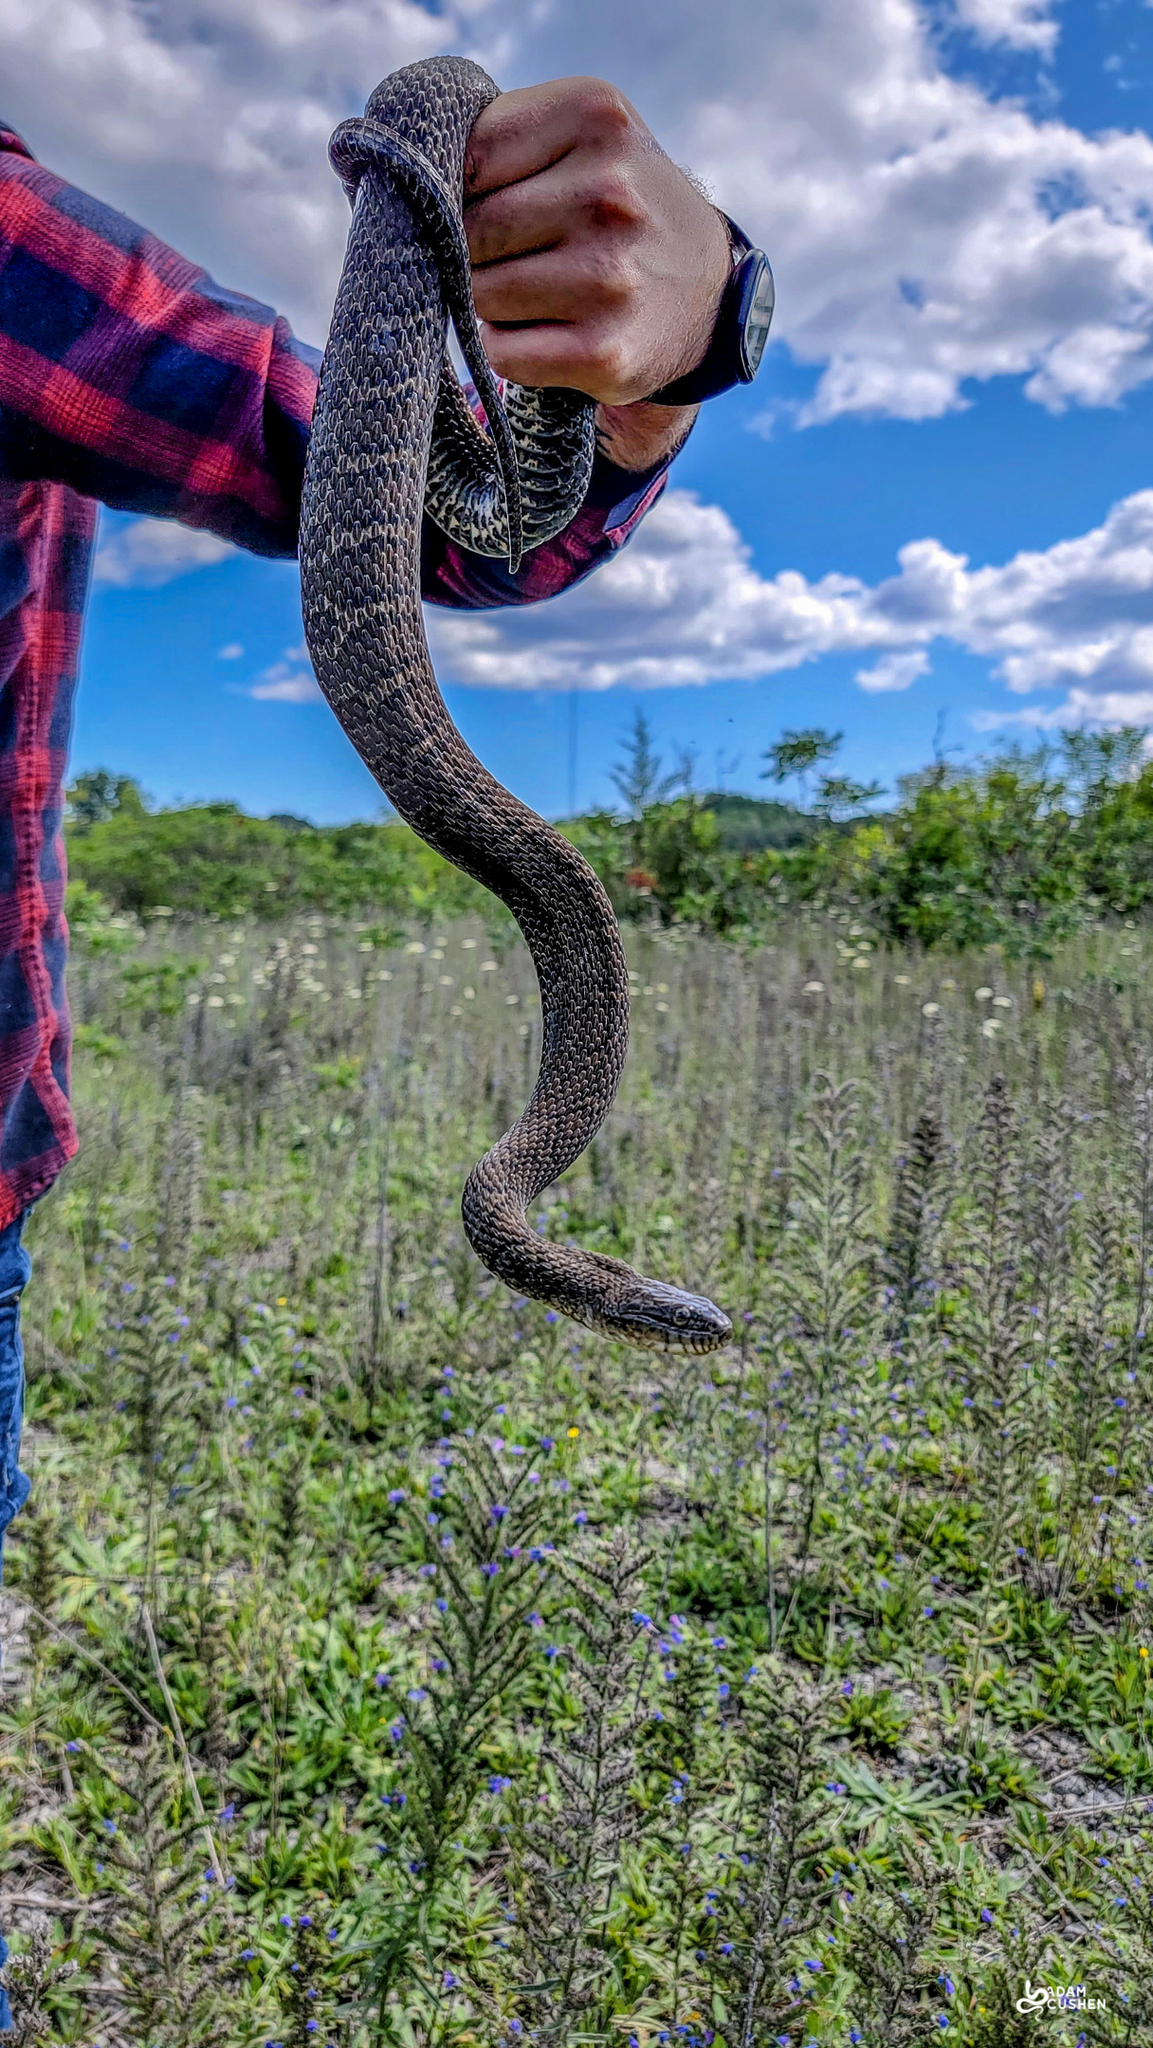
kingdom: Animalia
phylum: Chordata
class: Squamata
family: Colubridae
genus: Nerodia
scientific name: Nerodia sipedon
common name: Northern water snake
